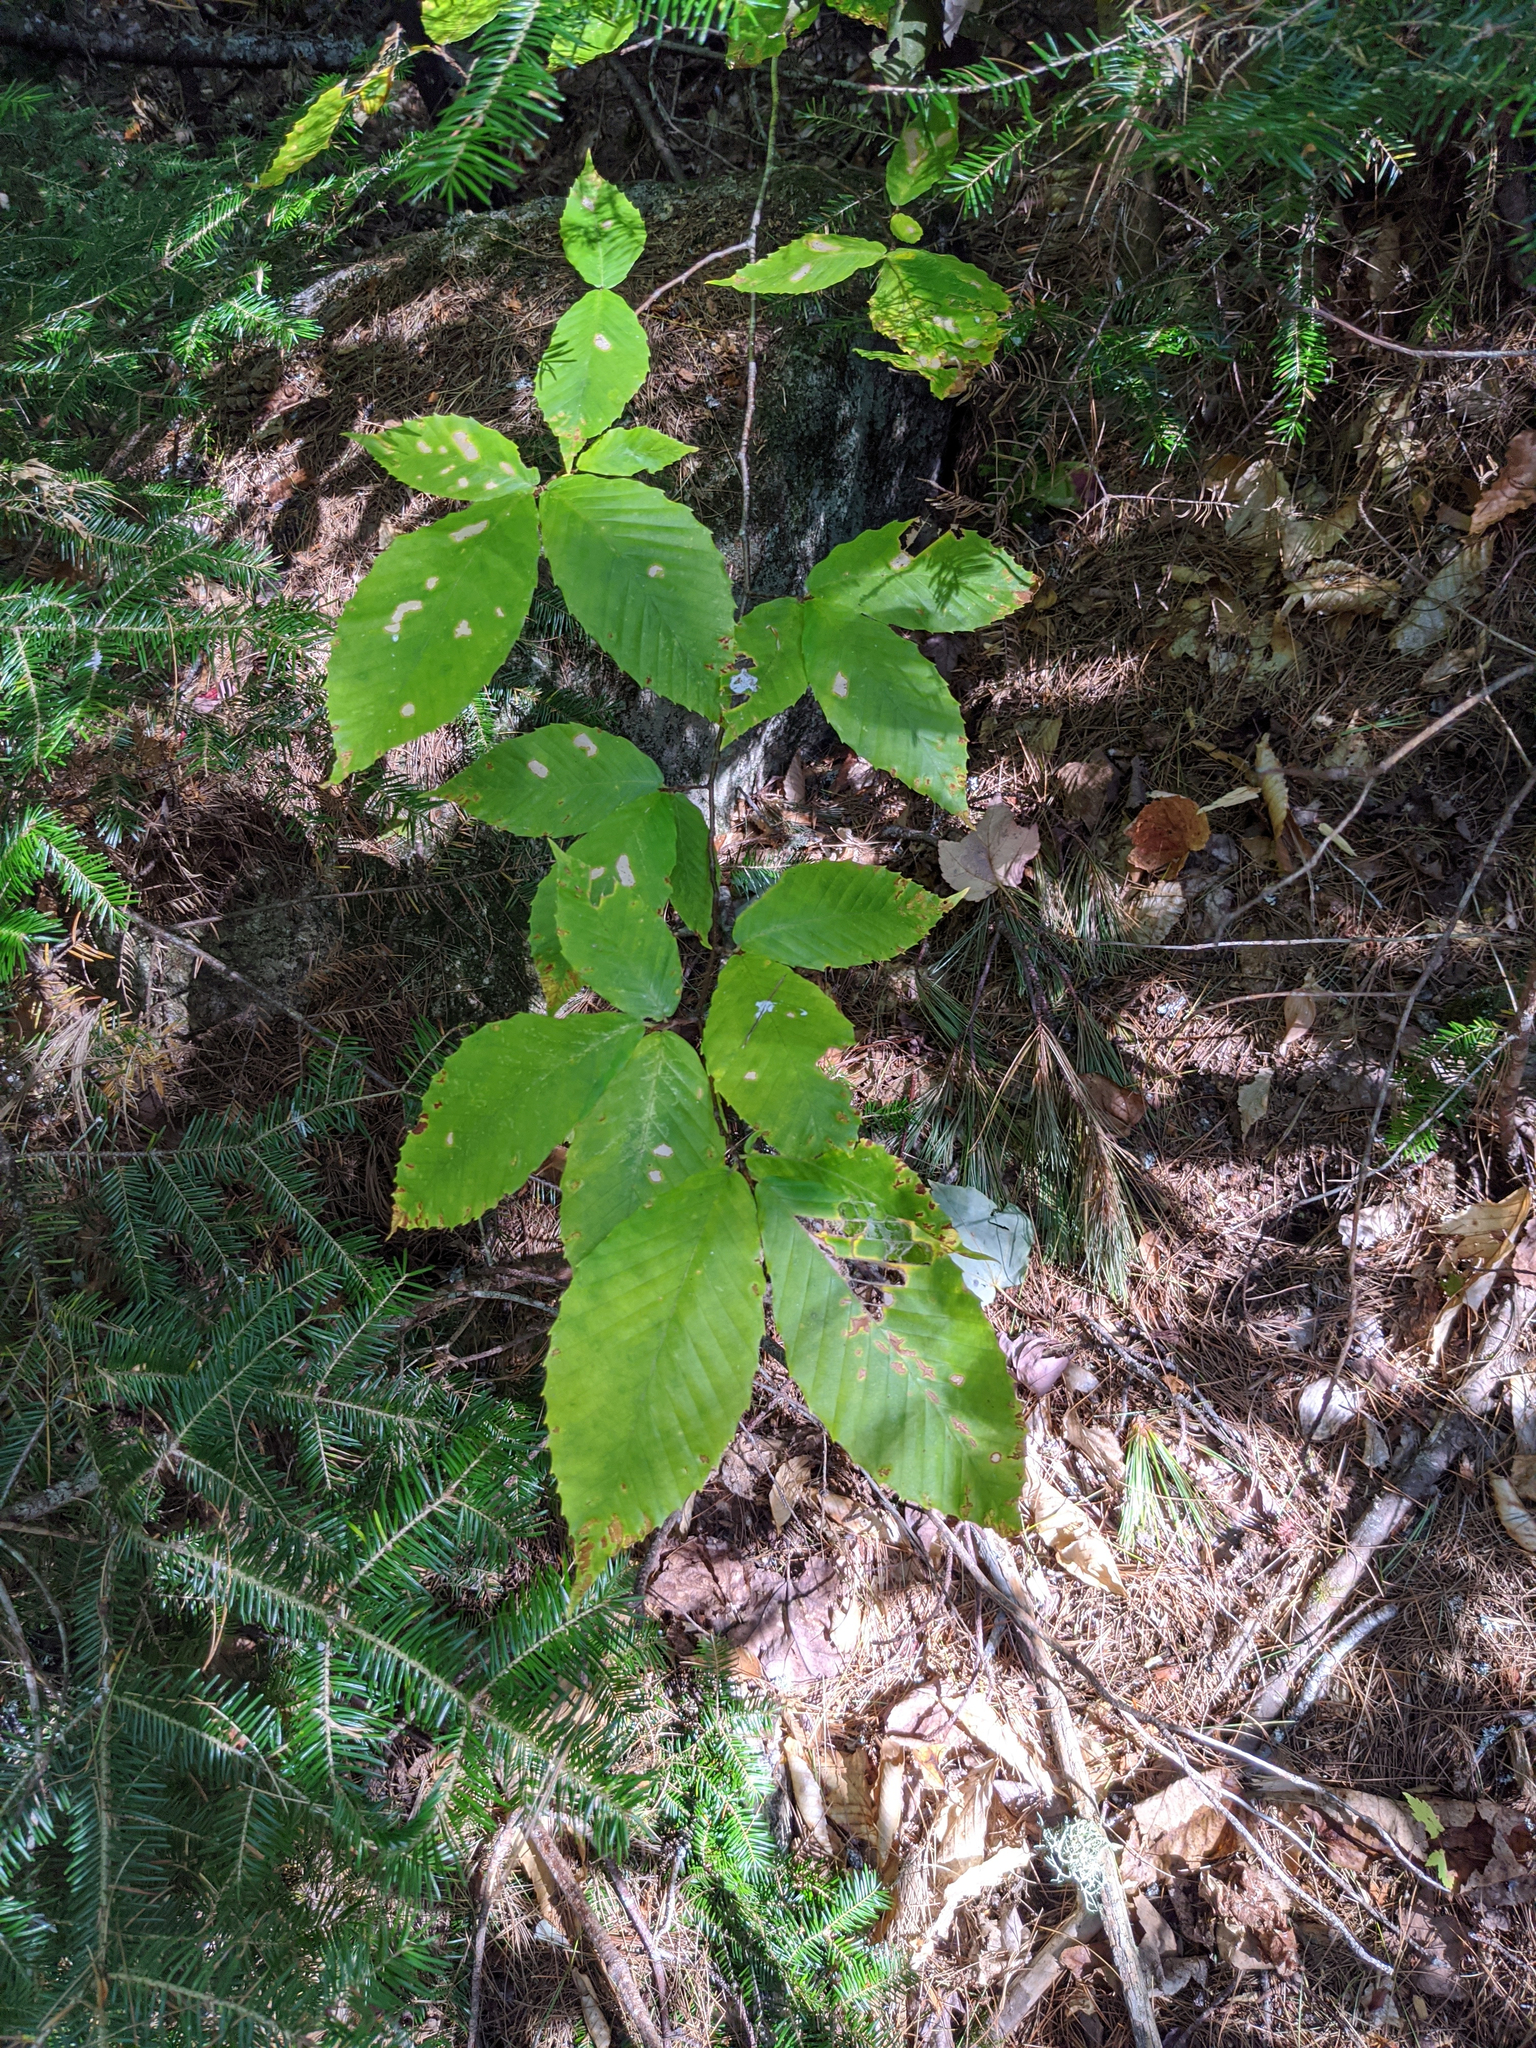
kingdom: Plantae
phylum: Tracheophyta
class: Magnoliopsida
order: Fagales
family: Fagaceae
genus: Fagus
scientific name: Fagus grandifolia
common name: American beech
